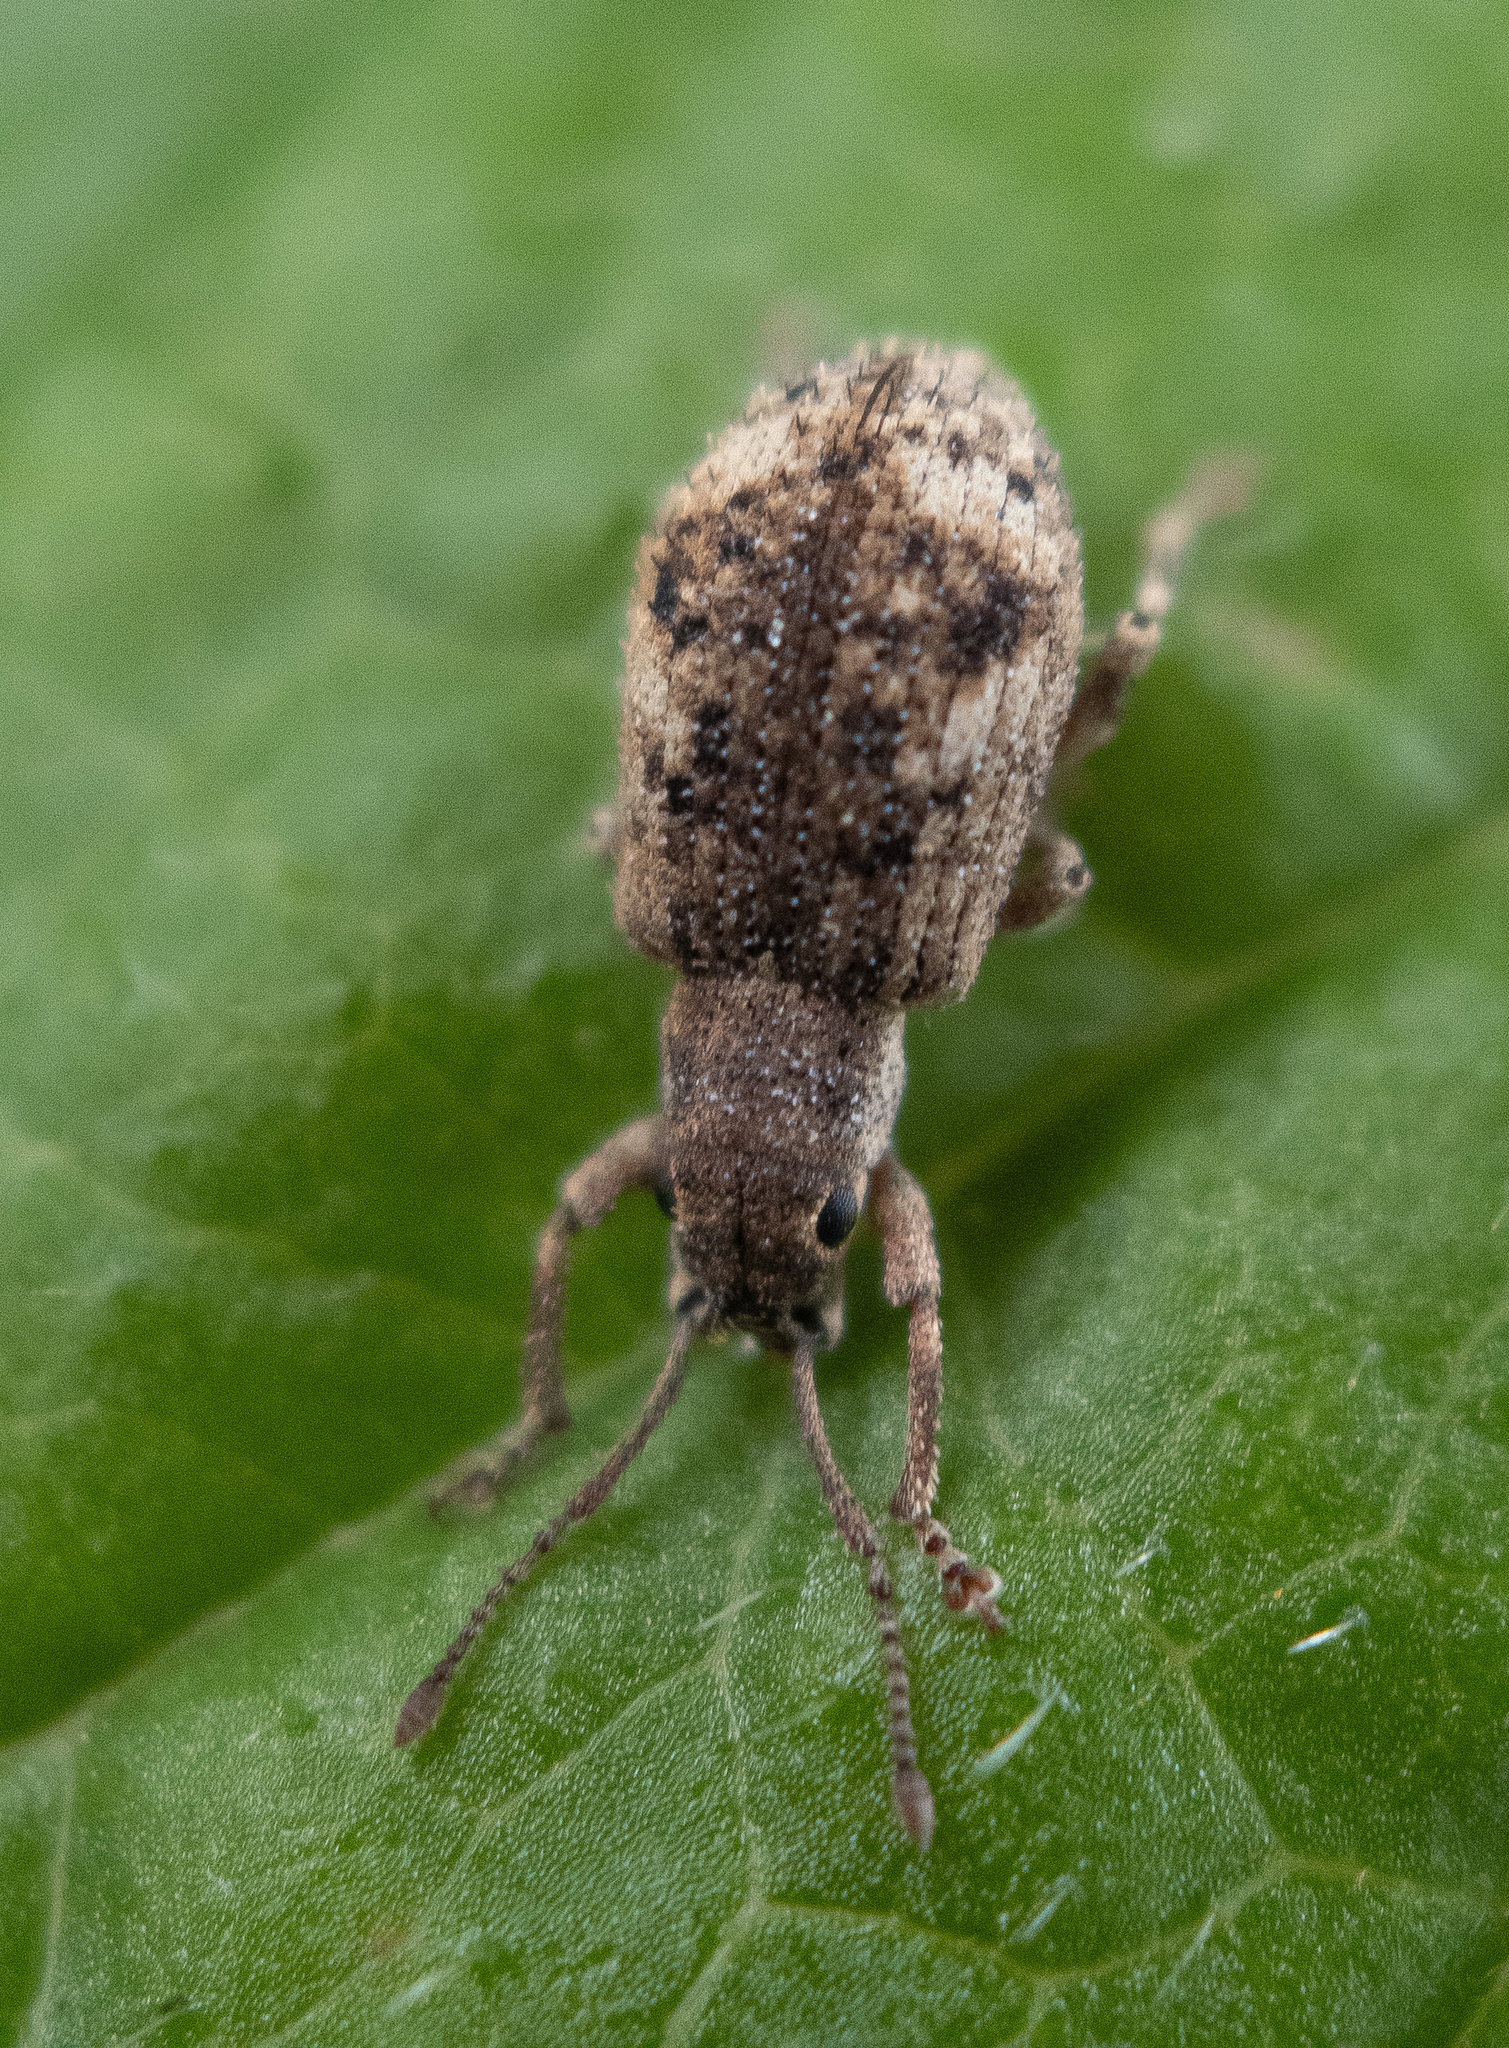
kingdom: Animalia
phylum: Arthropoda
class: Insecta
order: Coleoptera
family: Curculionidae
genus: Pseudoedophrys
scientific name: Pseudoedophrys hilleri
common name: Weevil
